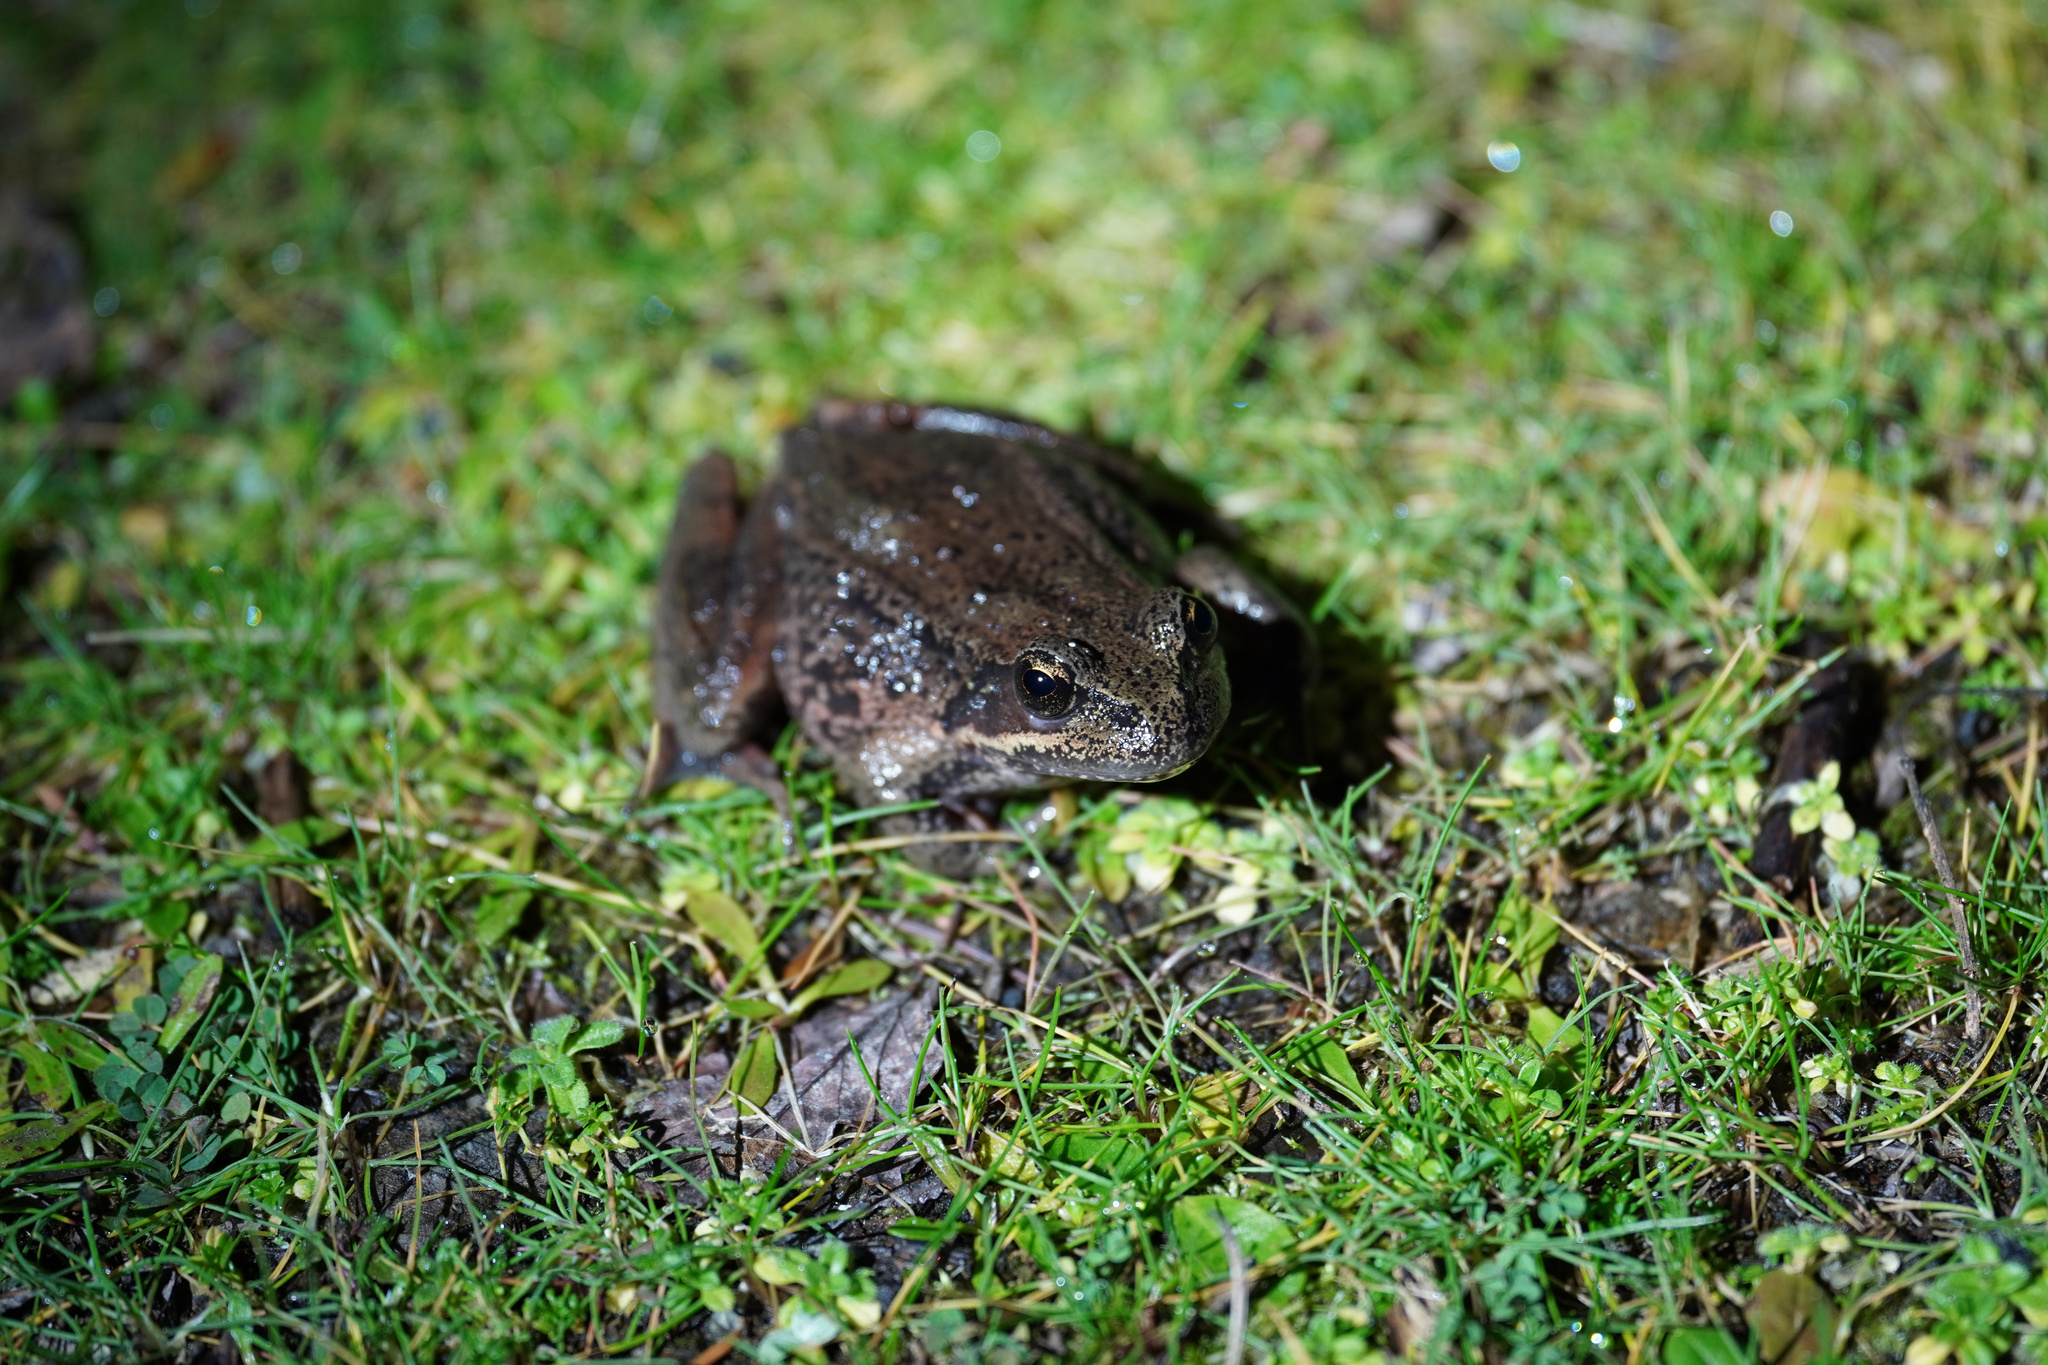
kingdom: Animalia
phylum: Chordata
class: Amphibia
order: Anura
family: Ranidae
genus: Rana
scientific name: Rana aurora
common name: Red-legged frog
